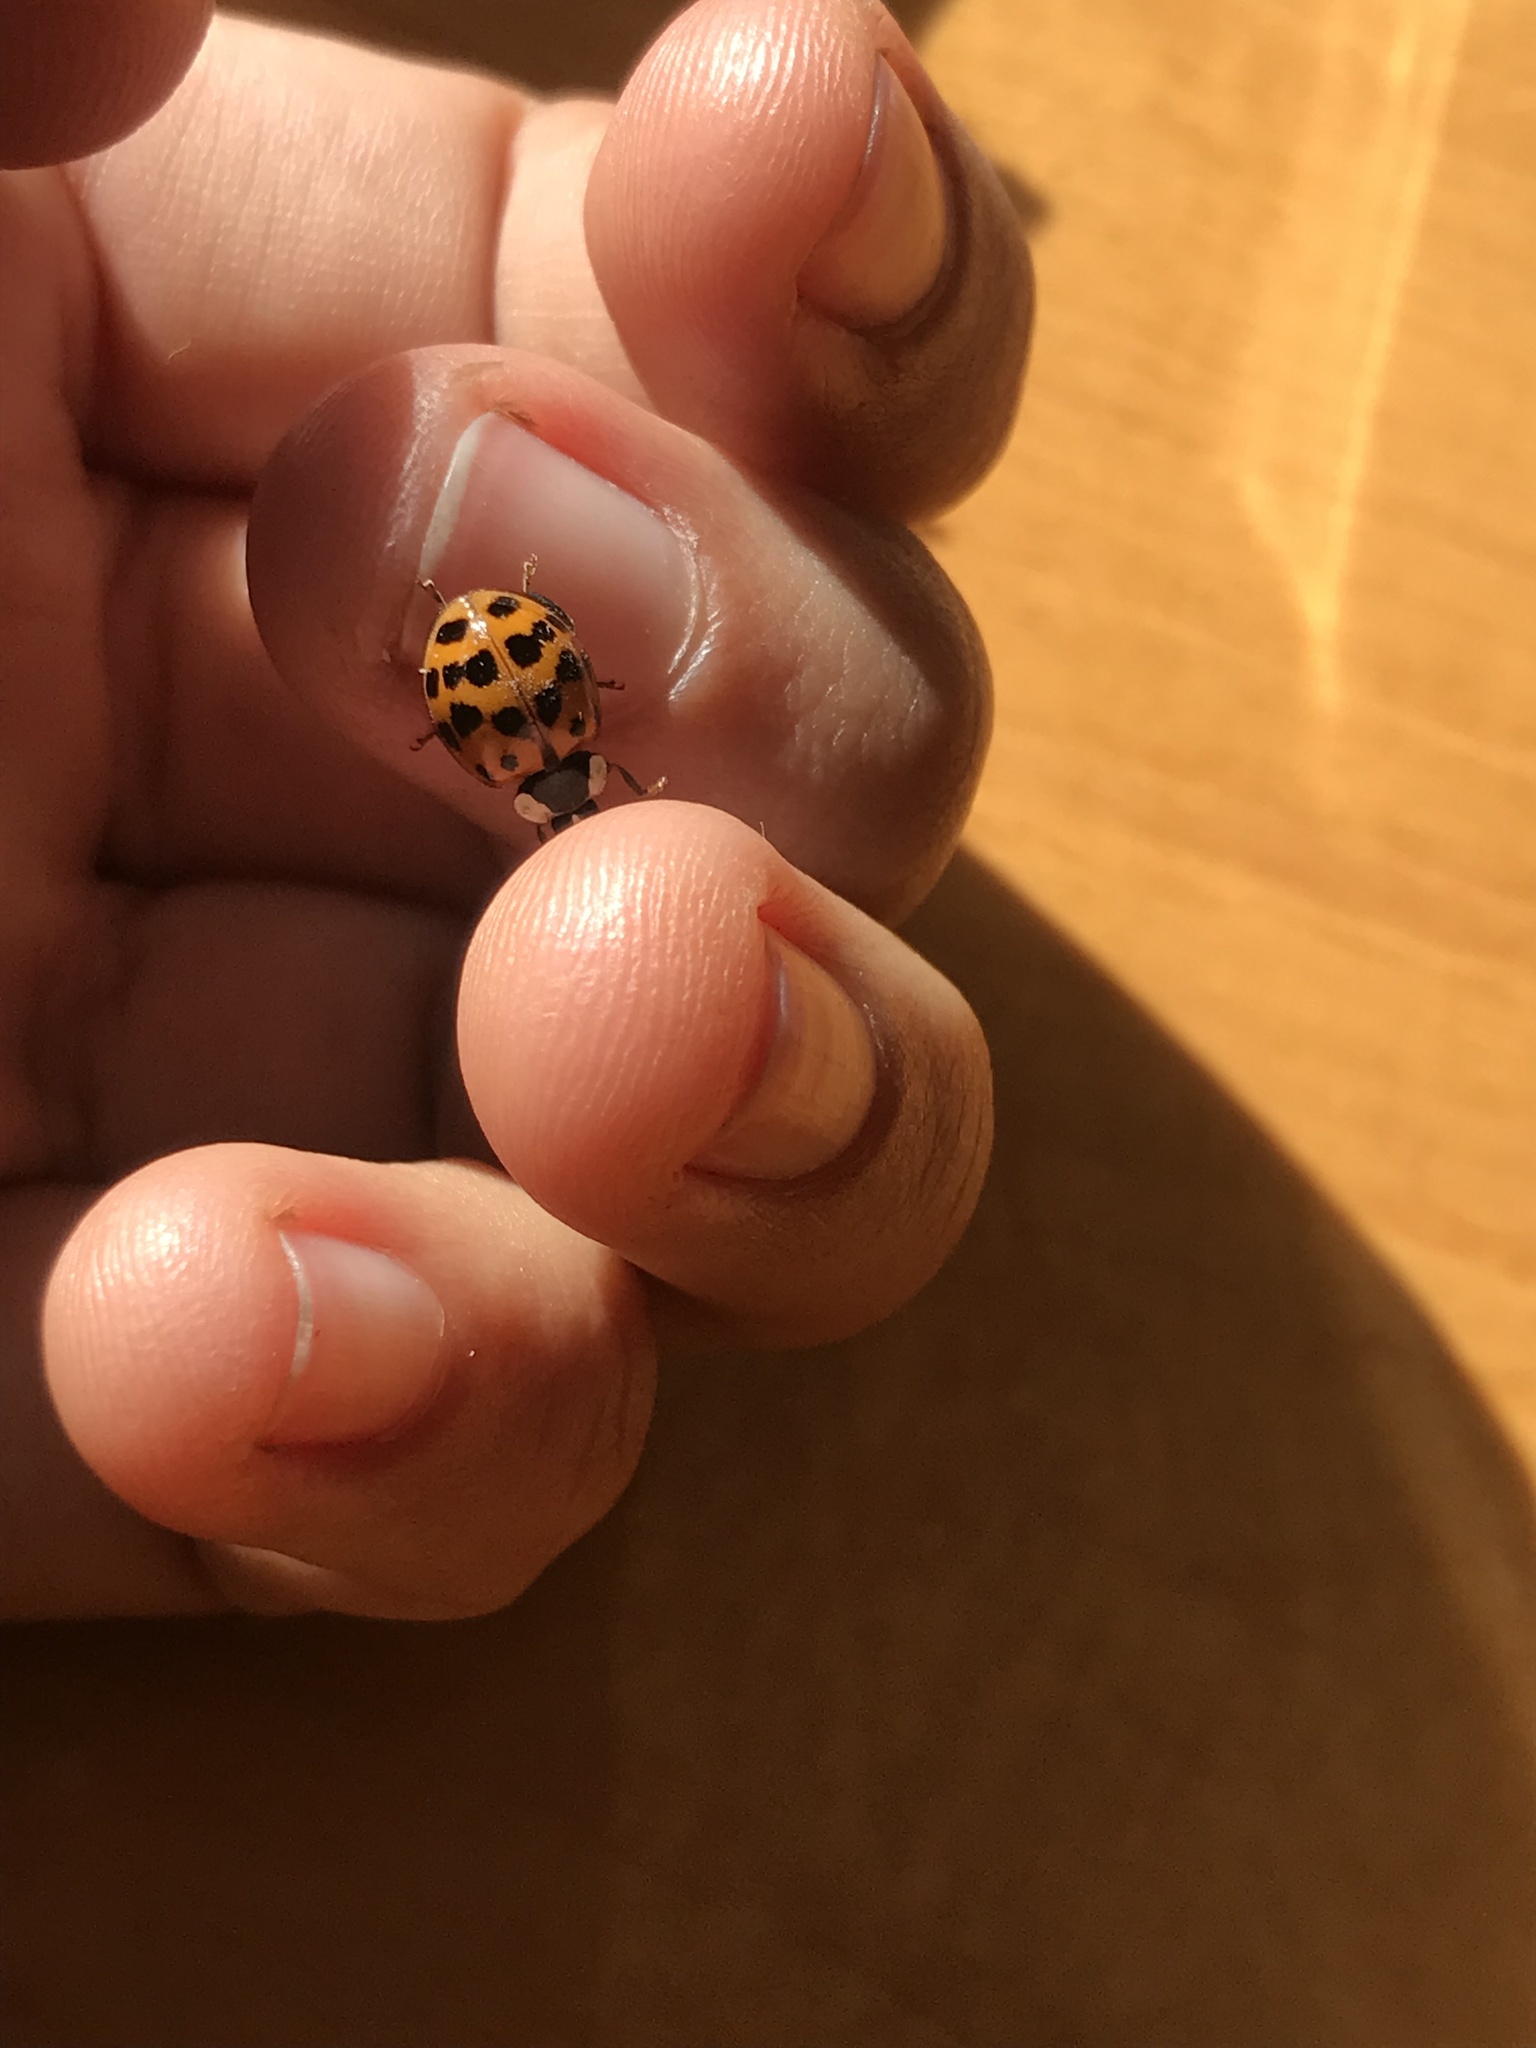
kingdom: Animalia
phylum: Arthropoda
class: Insecta
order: Coleoptera
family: Coccinellidae
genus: Harmonia
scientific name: Harmonia axyridis
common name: Harlequin ladybird
